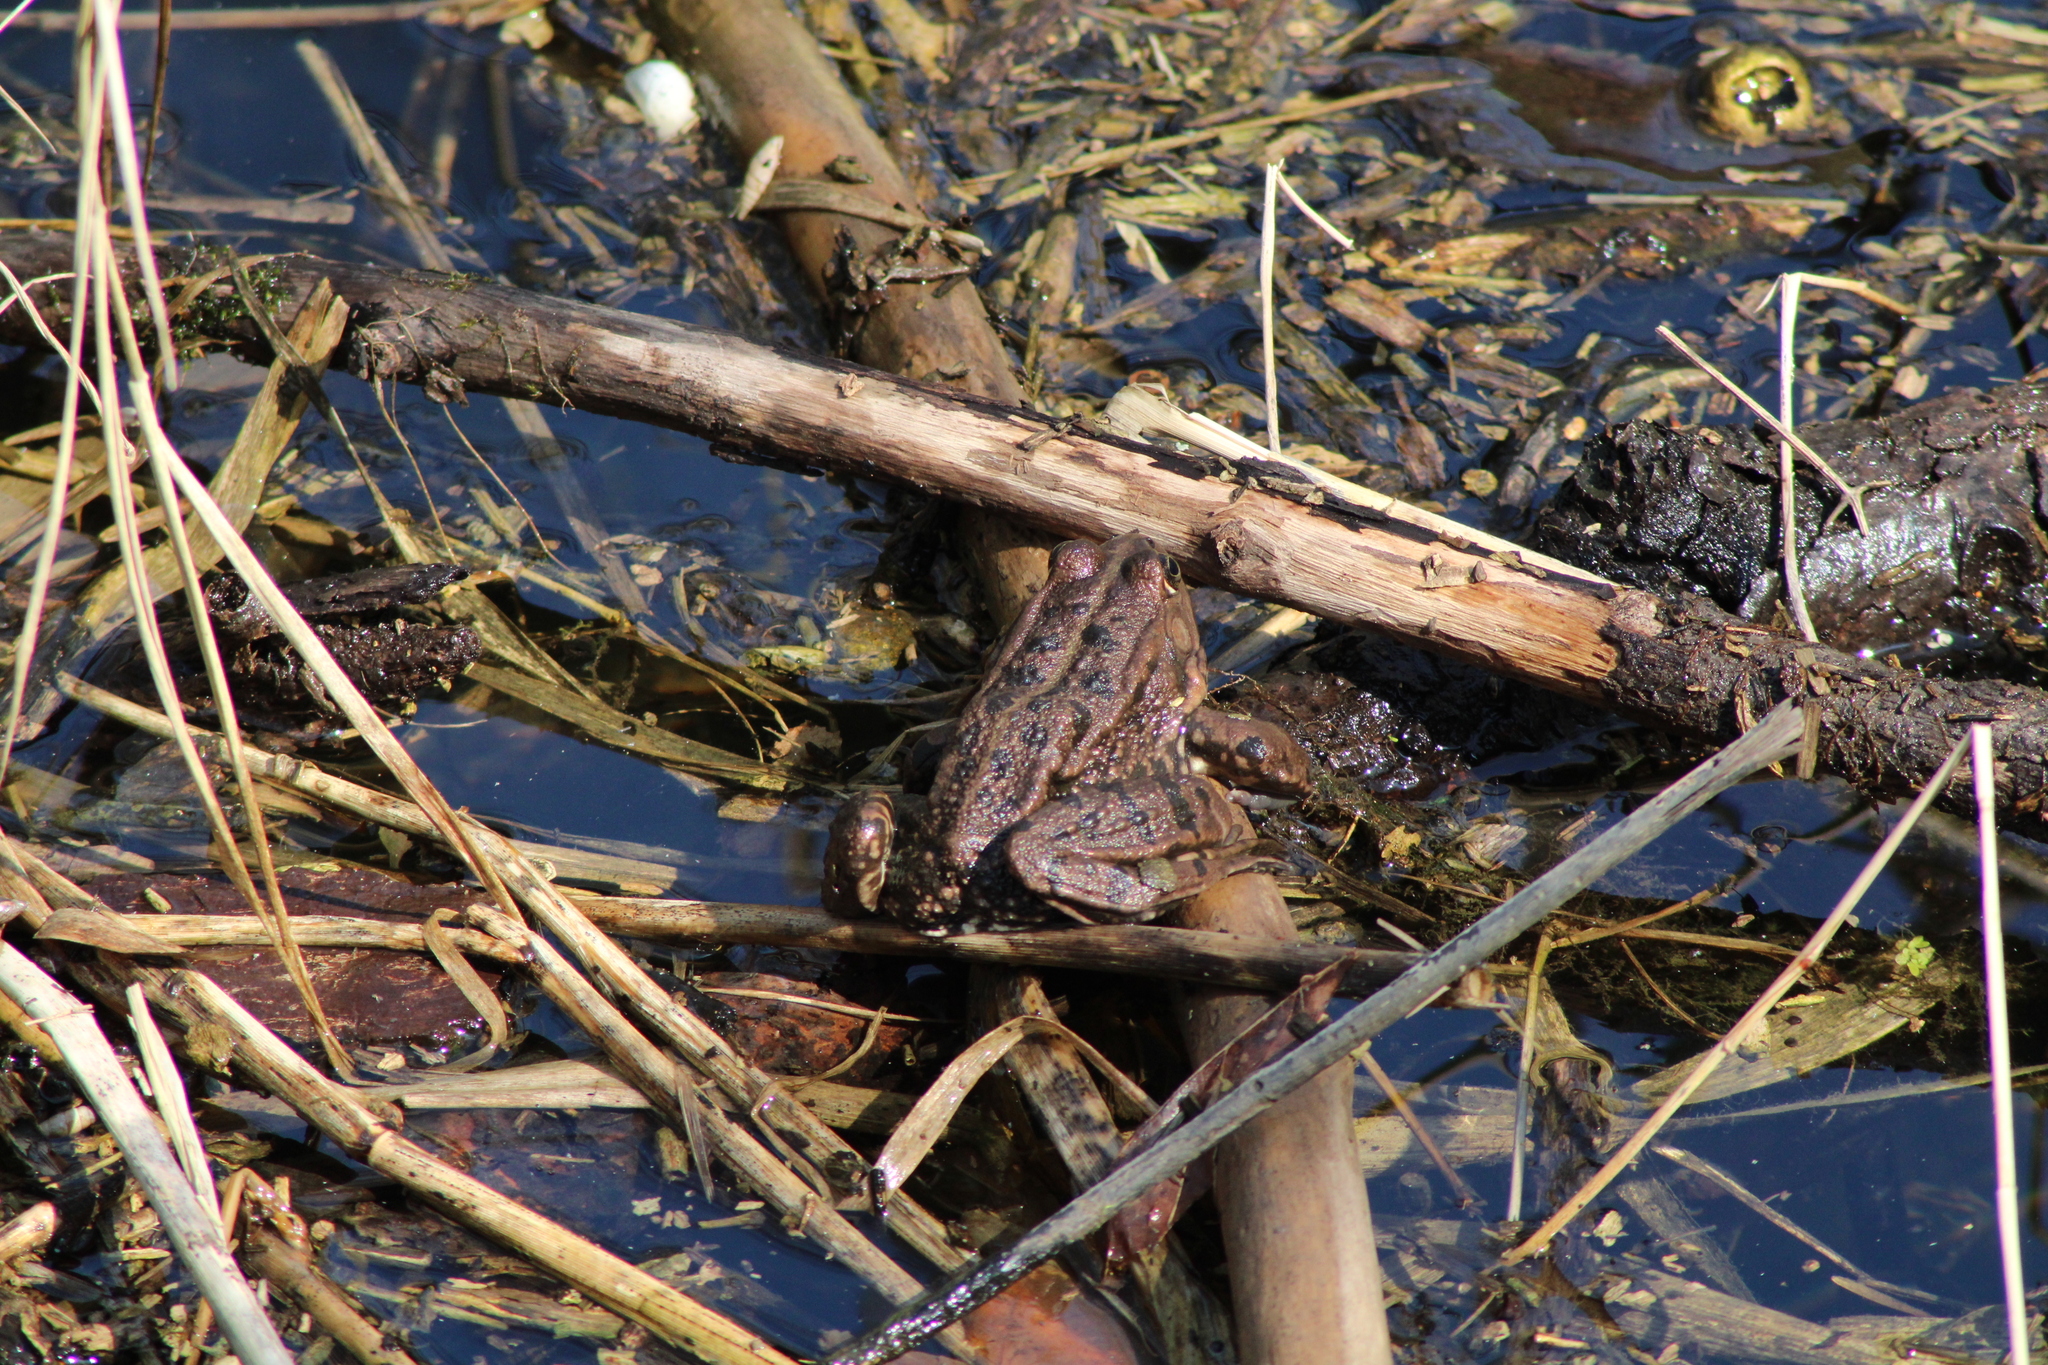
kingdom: Animalia
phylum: Chordata
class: Amphibia
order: Anura
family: Ranidae
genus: Pelophylax
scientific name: Pelophylax
